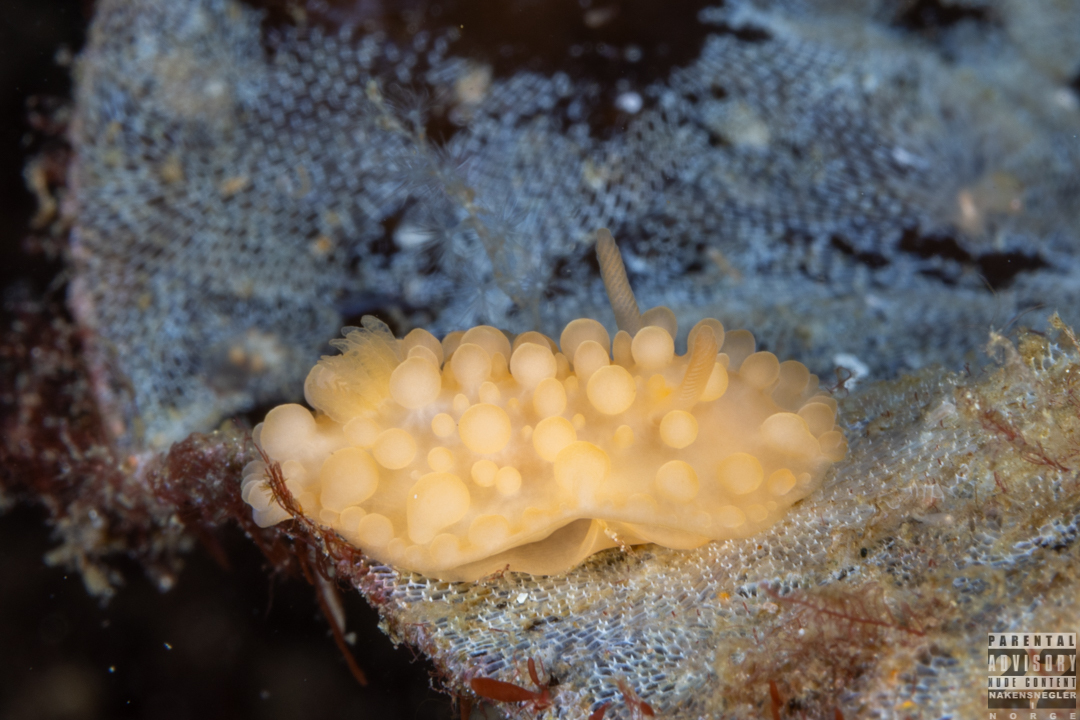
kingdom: Animalia
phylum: Mollusca
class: Gastropoda
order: Nudibranchia
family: Onchidorididae
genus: Adalaria
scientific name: Adalaria loveni
